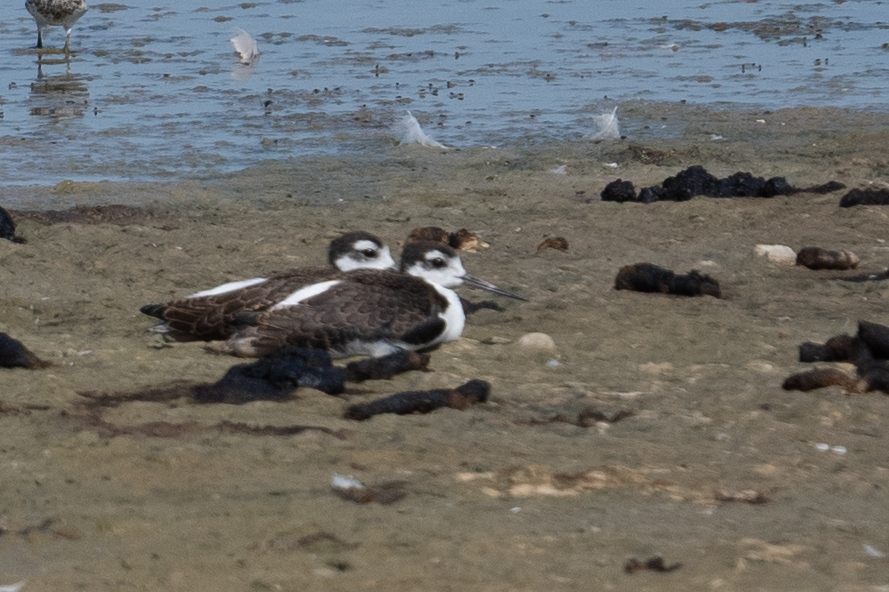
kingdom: Animalia
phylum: Chordata
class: Aves
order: Charadriiformes
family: Recurvirostridae
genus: Himantopus
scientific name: Himantopus mexicanus
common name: Black-necked stilt
